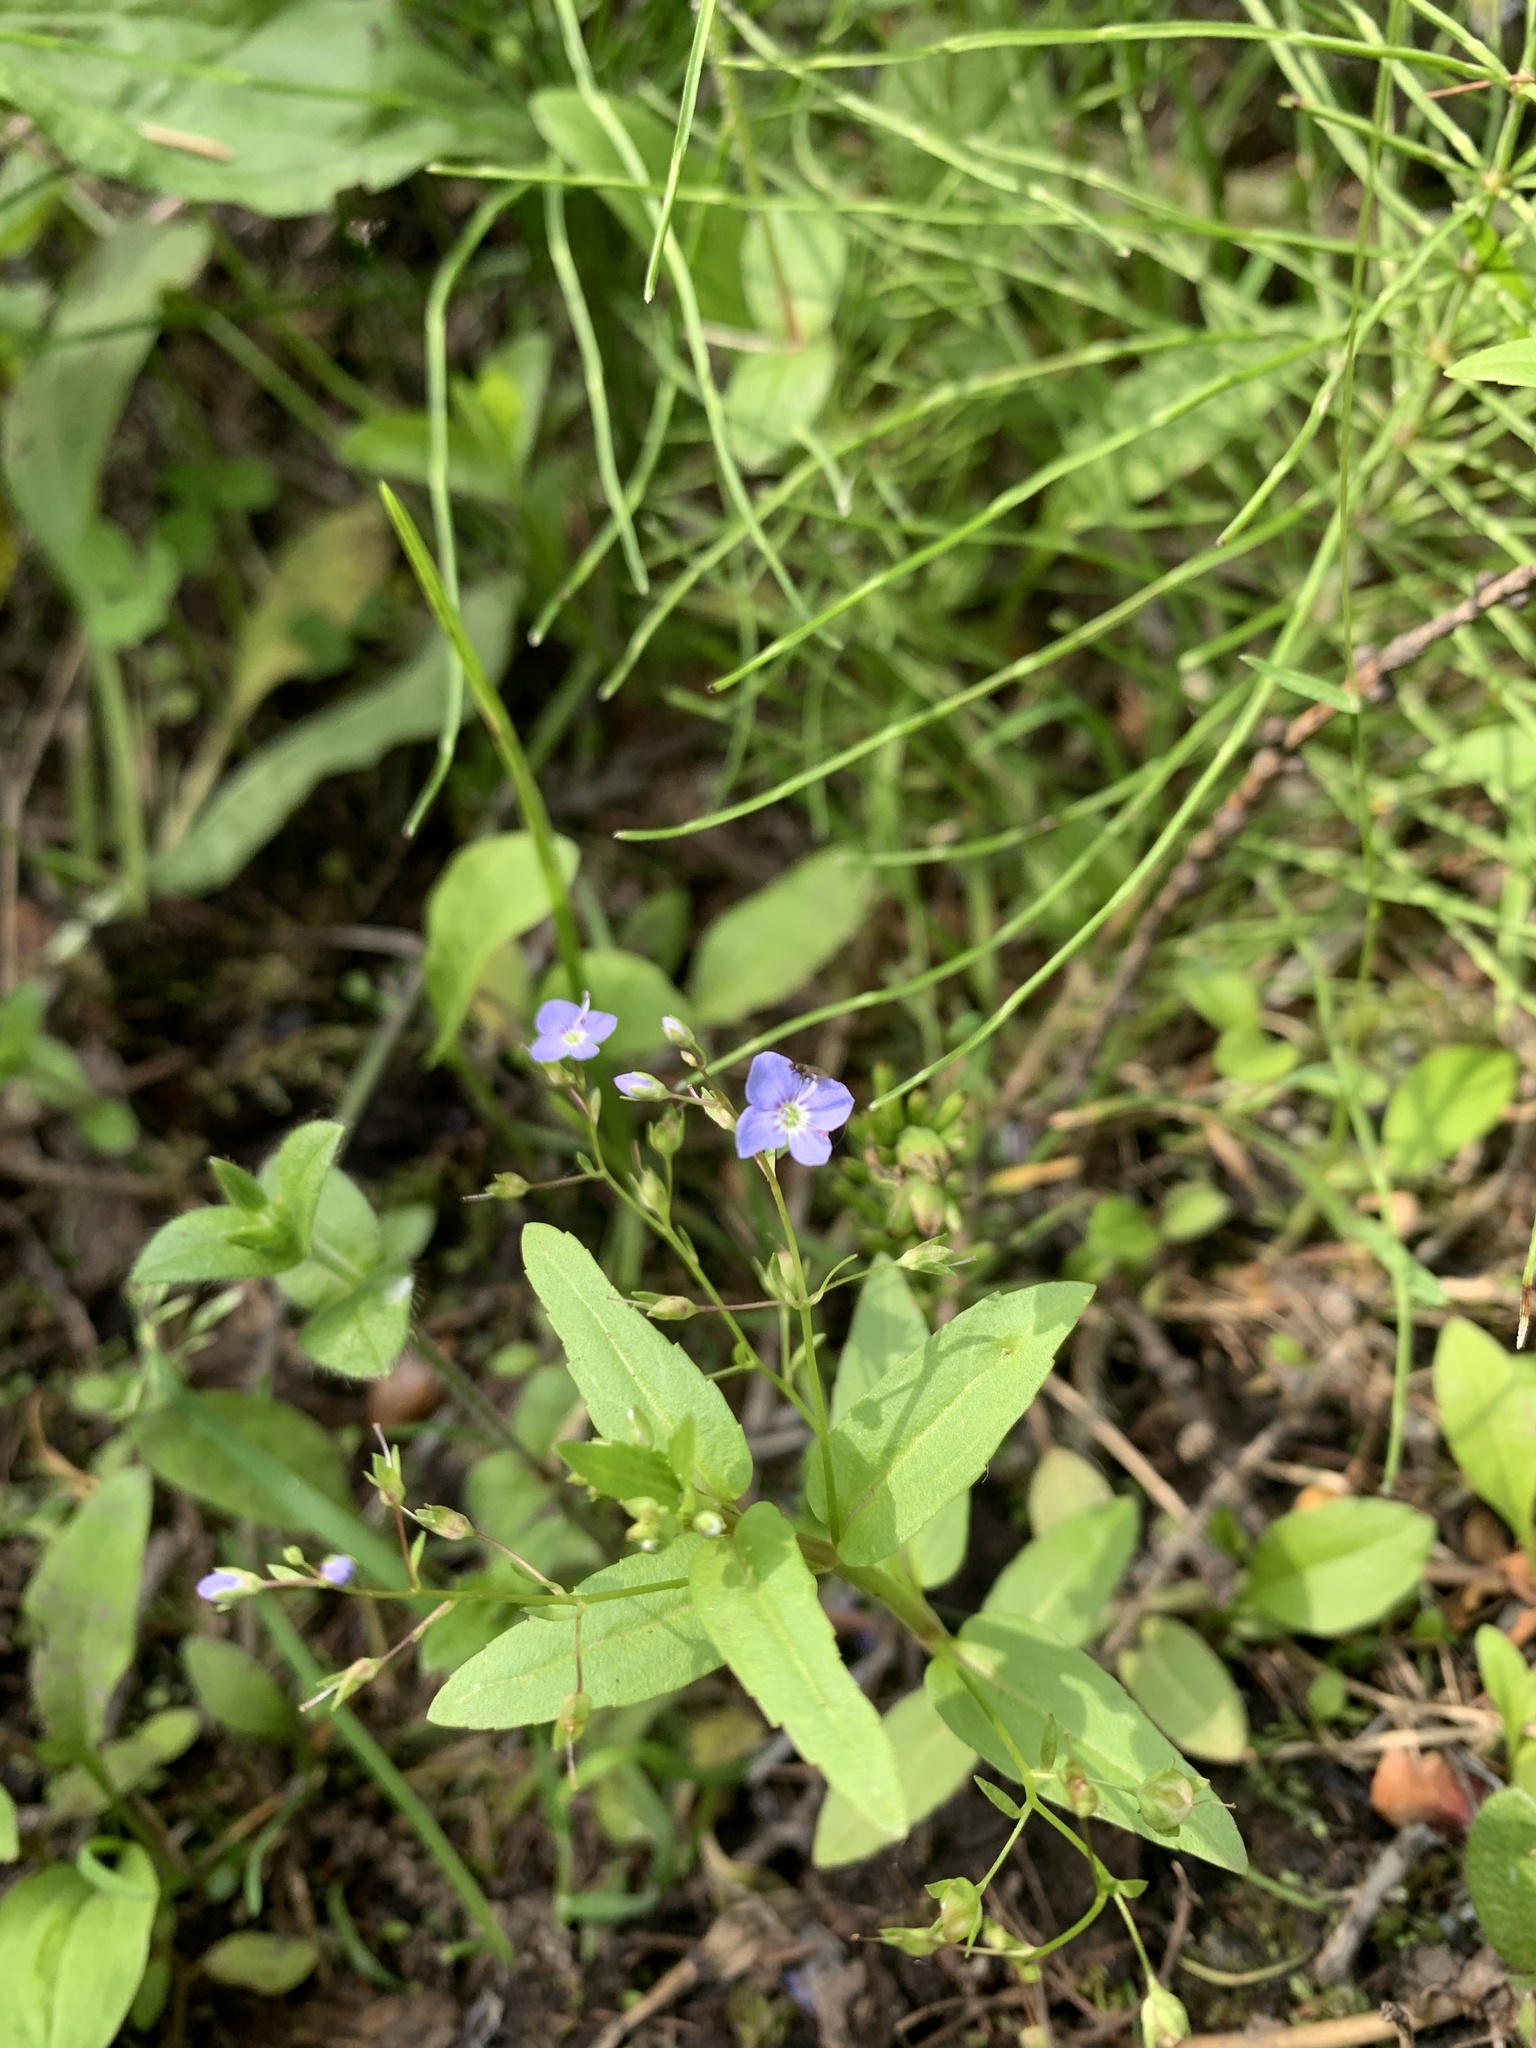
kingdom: Plantae
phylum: Tracheophyta
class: Magnoliopsida
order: Lamiales
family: Plantaginaceae
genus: Veronica
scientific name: Veronica americana
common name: American brooklime
